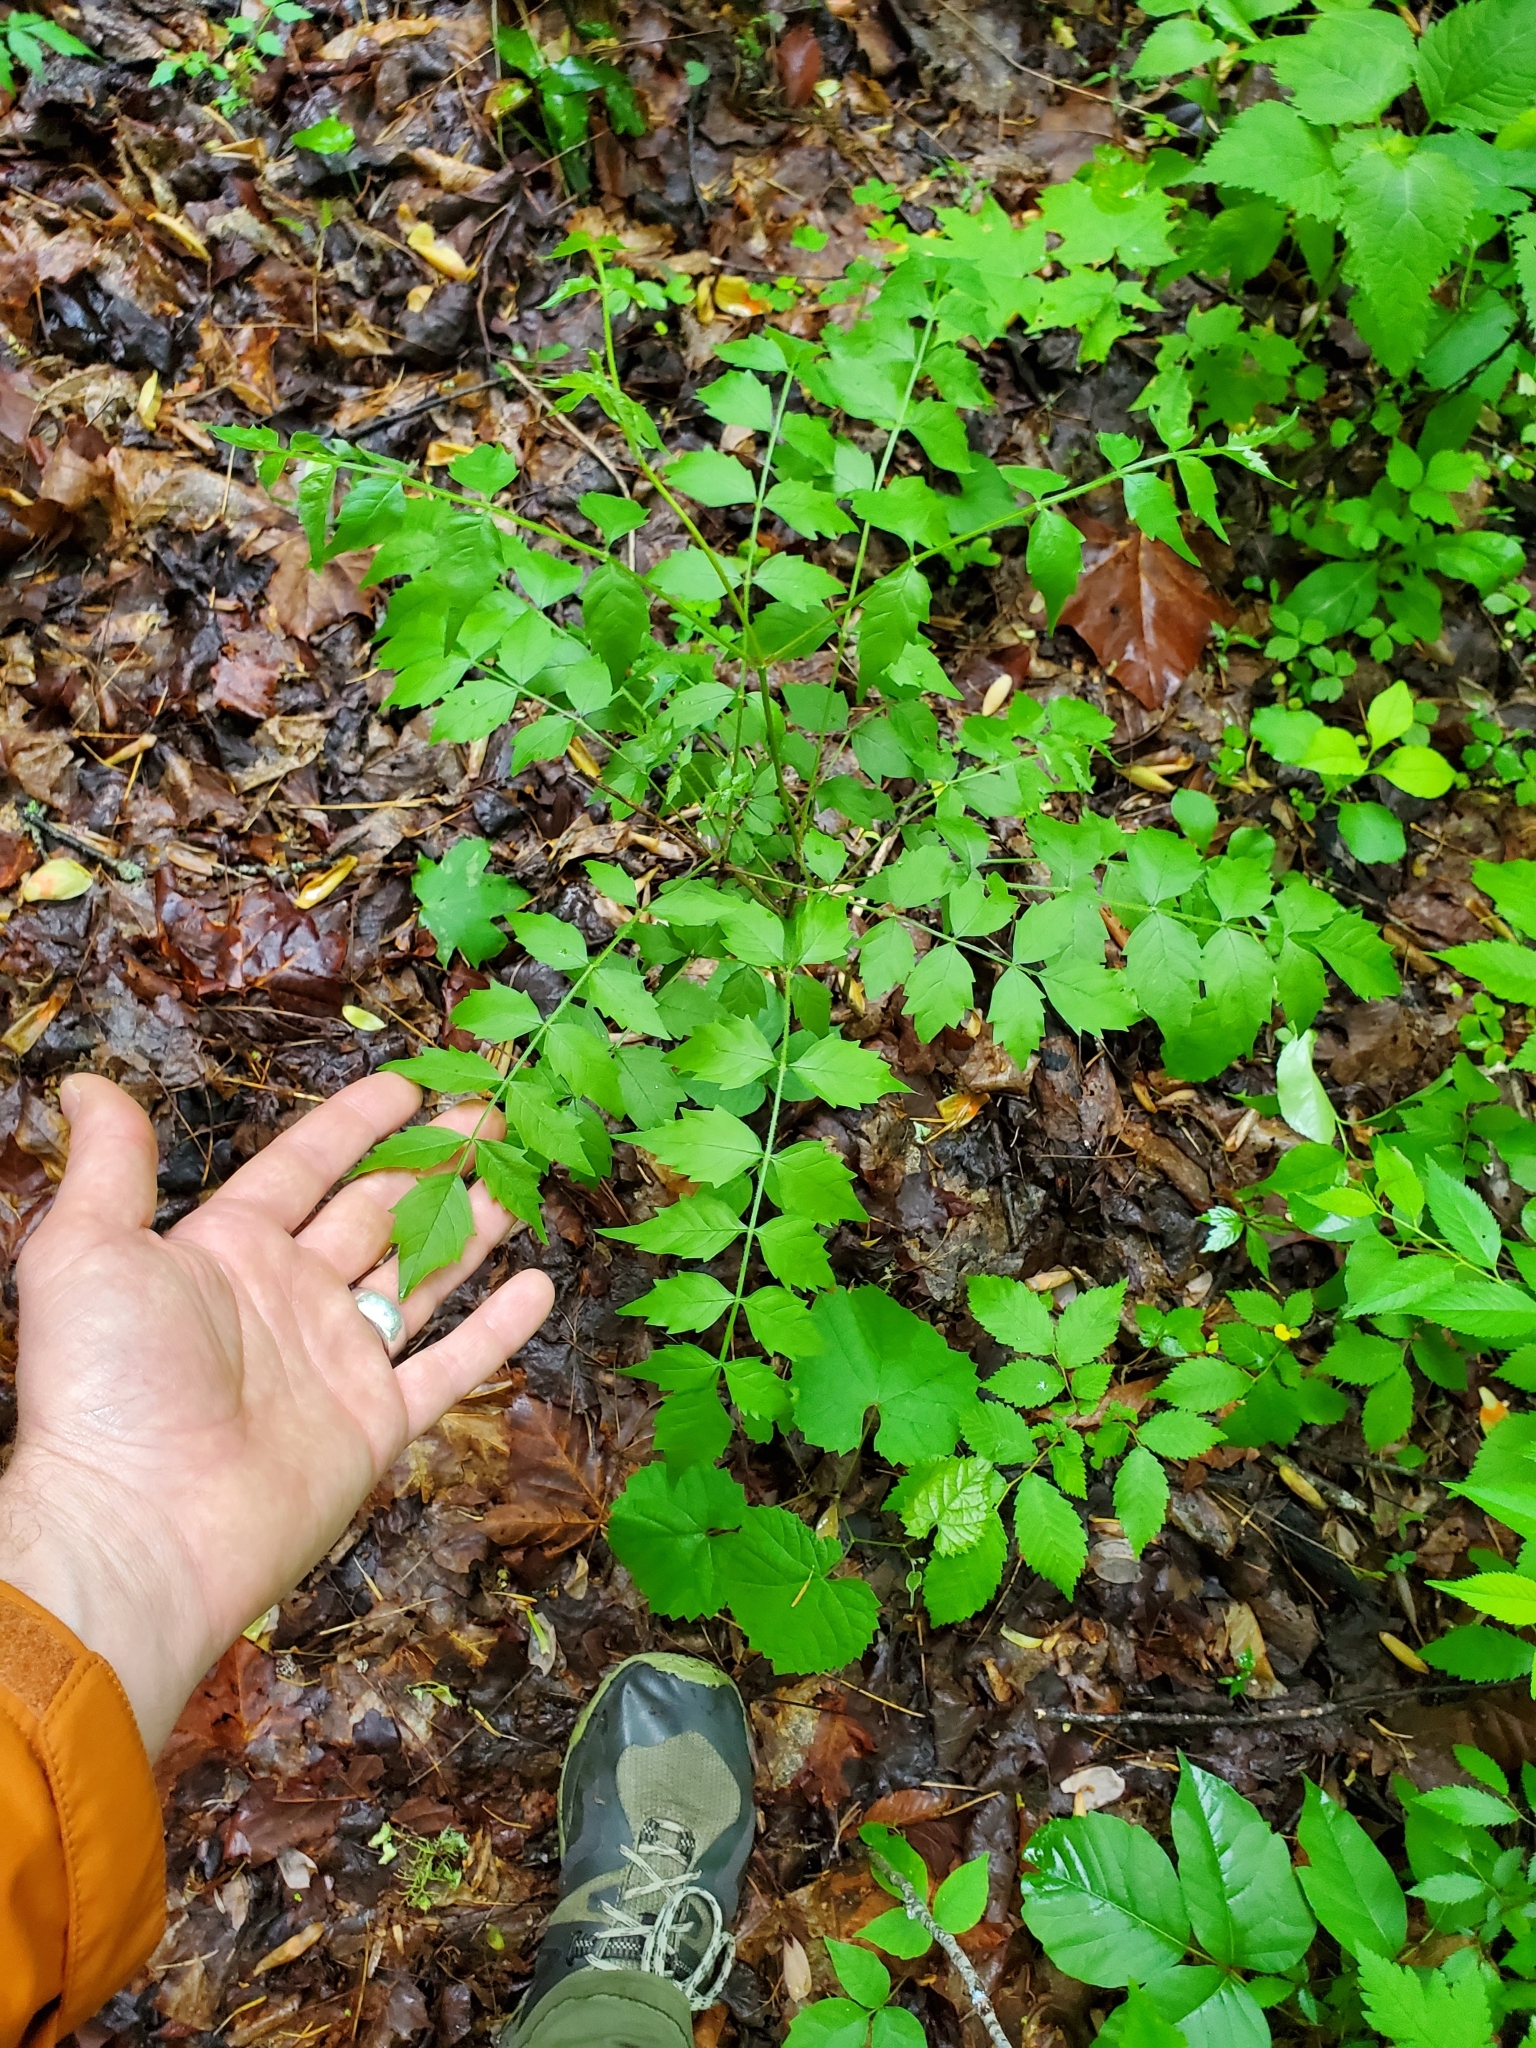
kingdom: Plantae
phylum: Tracheophyta
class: Magnoliopsida
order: Lamiales
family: Bignoniaceae
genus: Campsis
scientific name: Campsis radicans
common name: Trumpet-creeper
